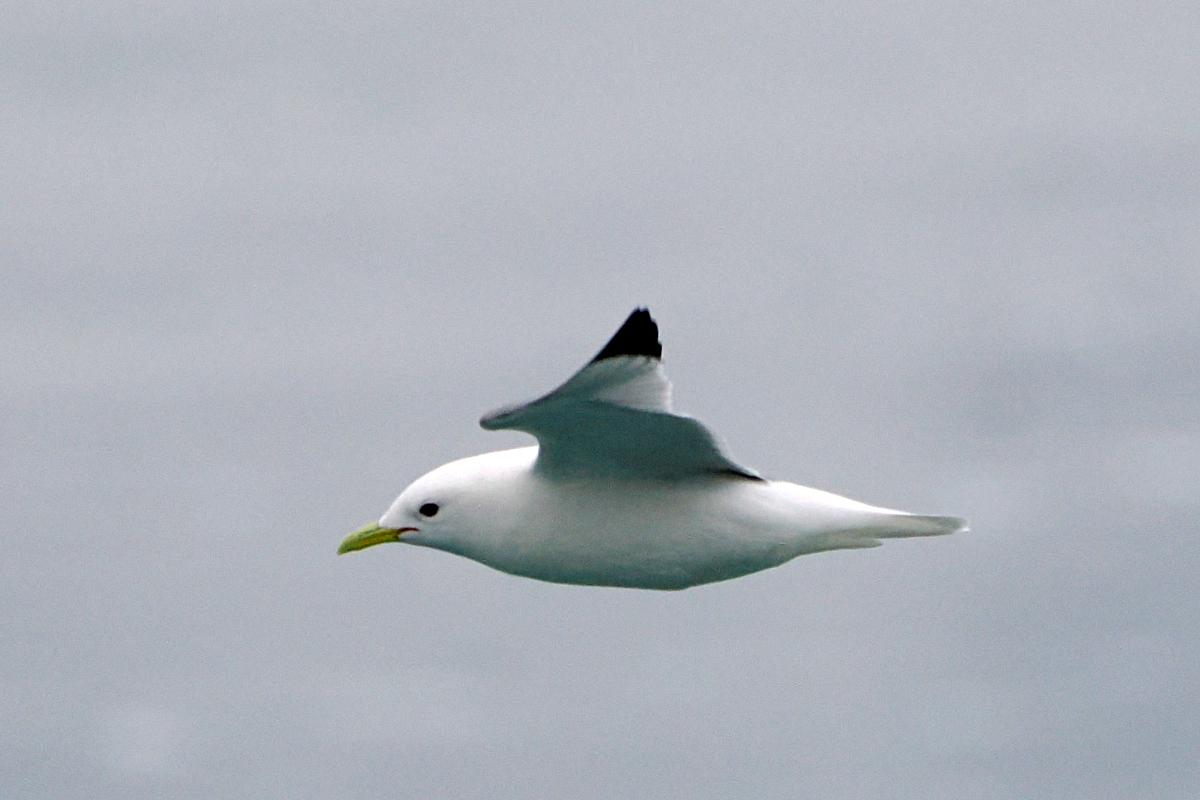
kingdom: Animalia
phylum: Chordata
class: Aves
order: Charadriiformes
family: Laridae
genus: Rissa
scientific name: Rissa tridactyla
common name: Black-legged kittiwake
